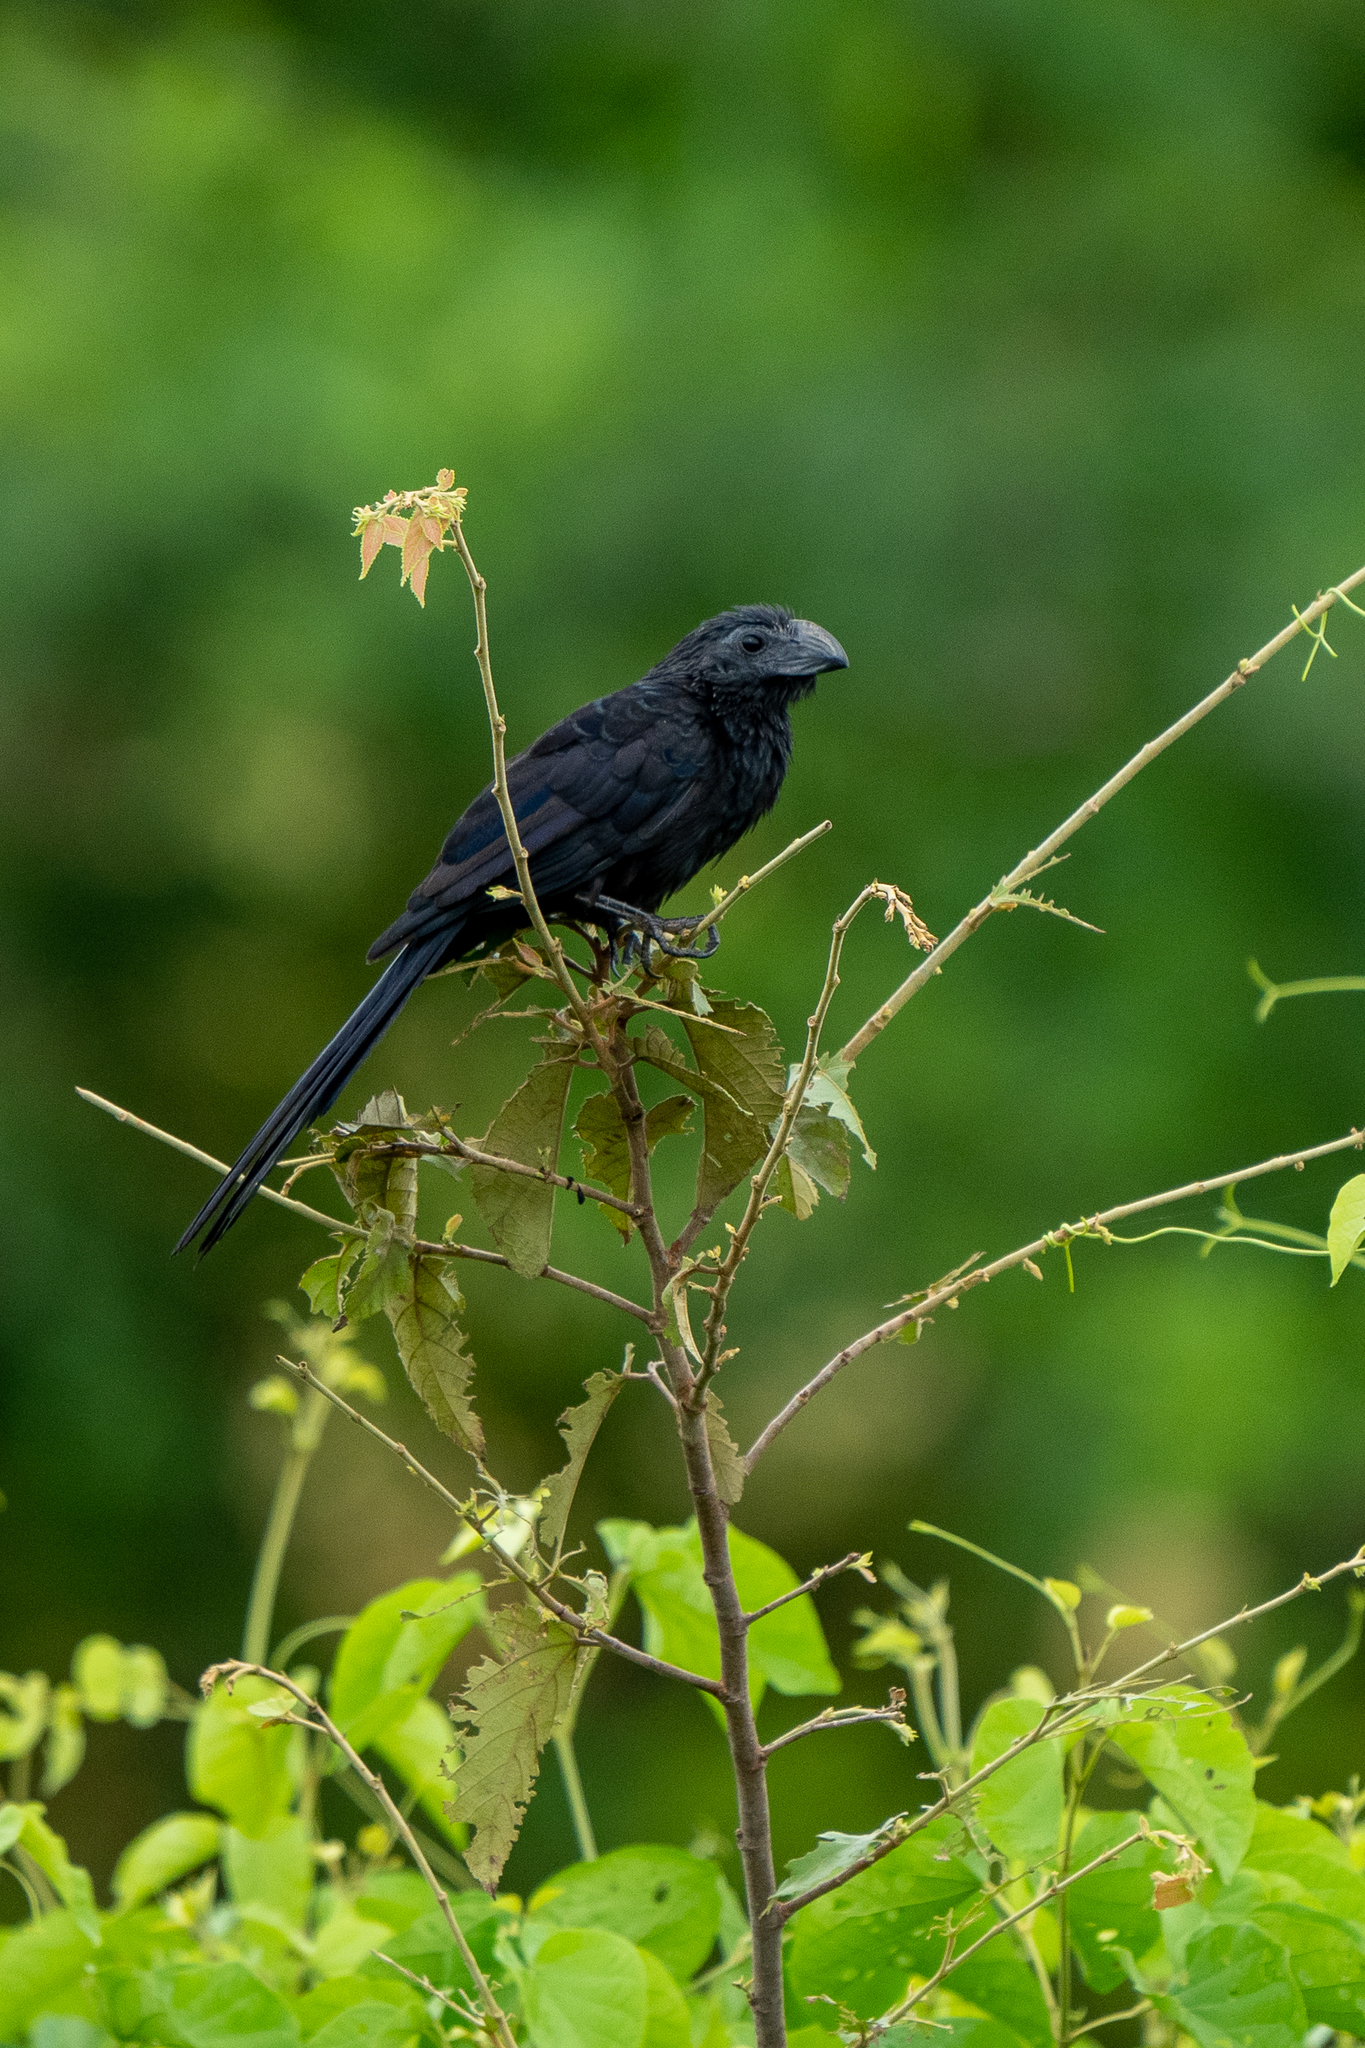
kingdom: Animalia
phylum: Chordata
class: Aves
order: Cuculiformes
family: Cuculidae
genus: Crotophaga
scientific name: Crotophaga sulcirostris
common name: Groove-billed ani
